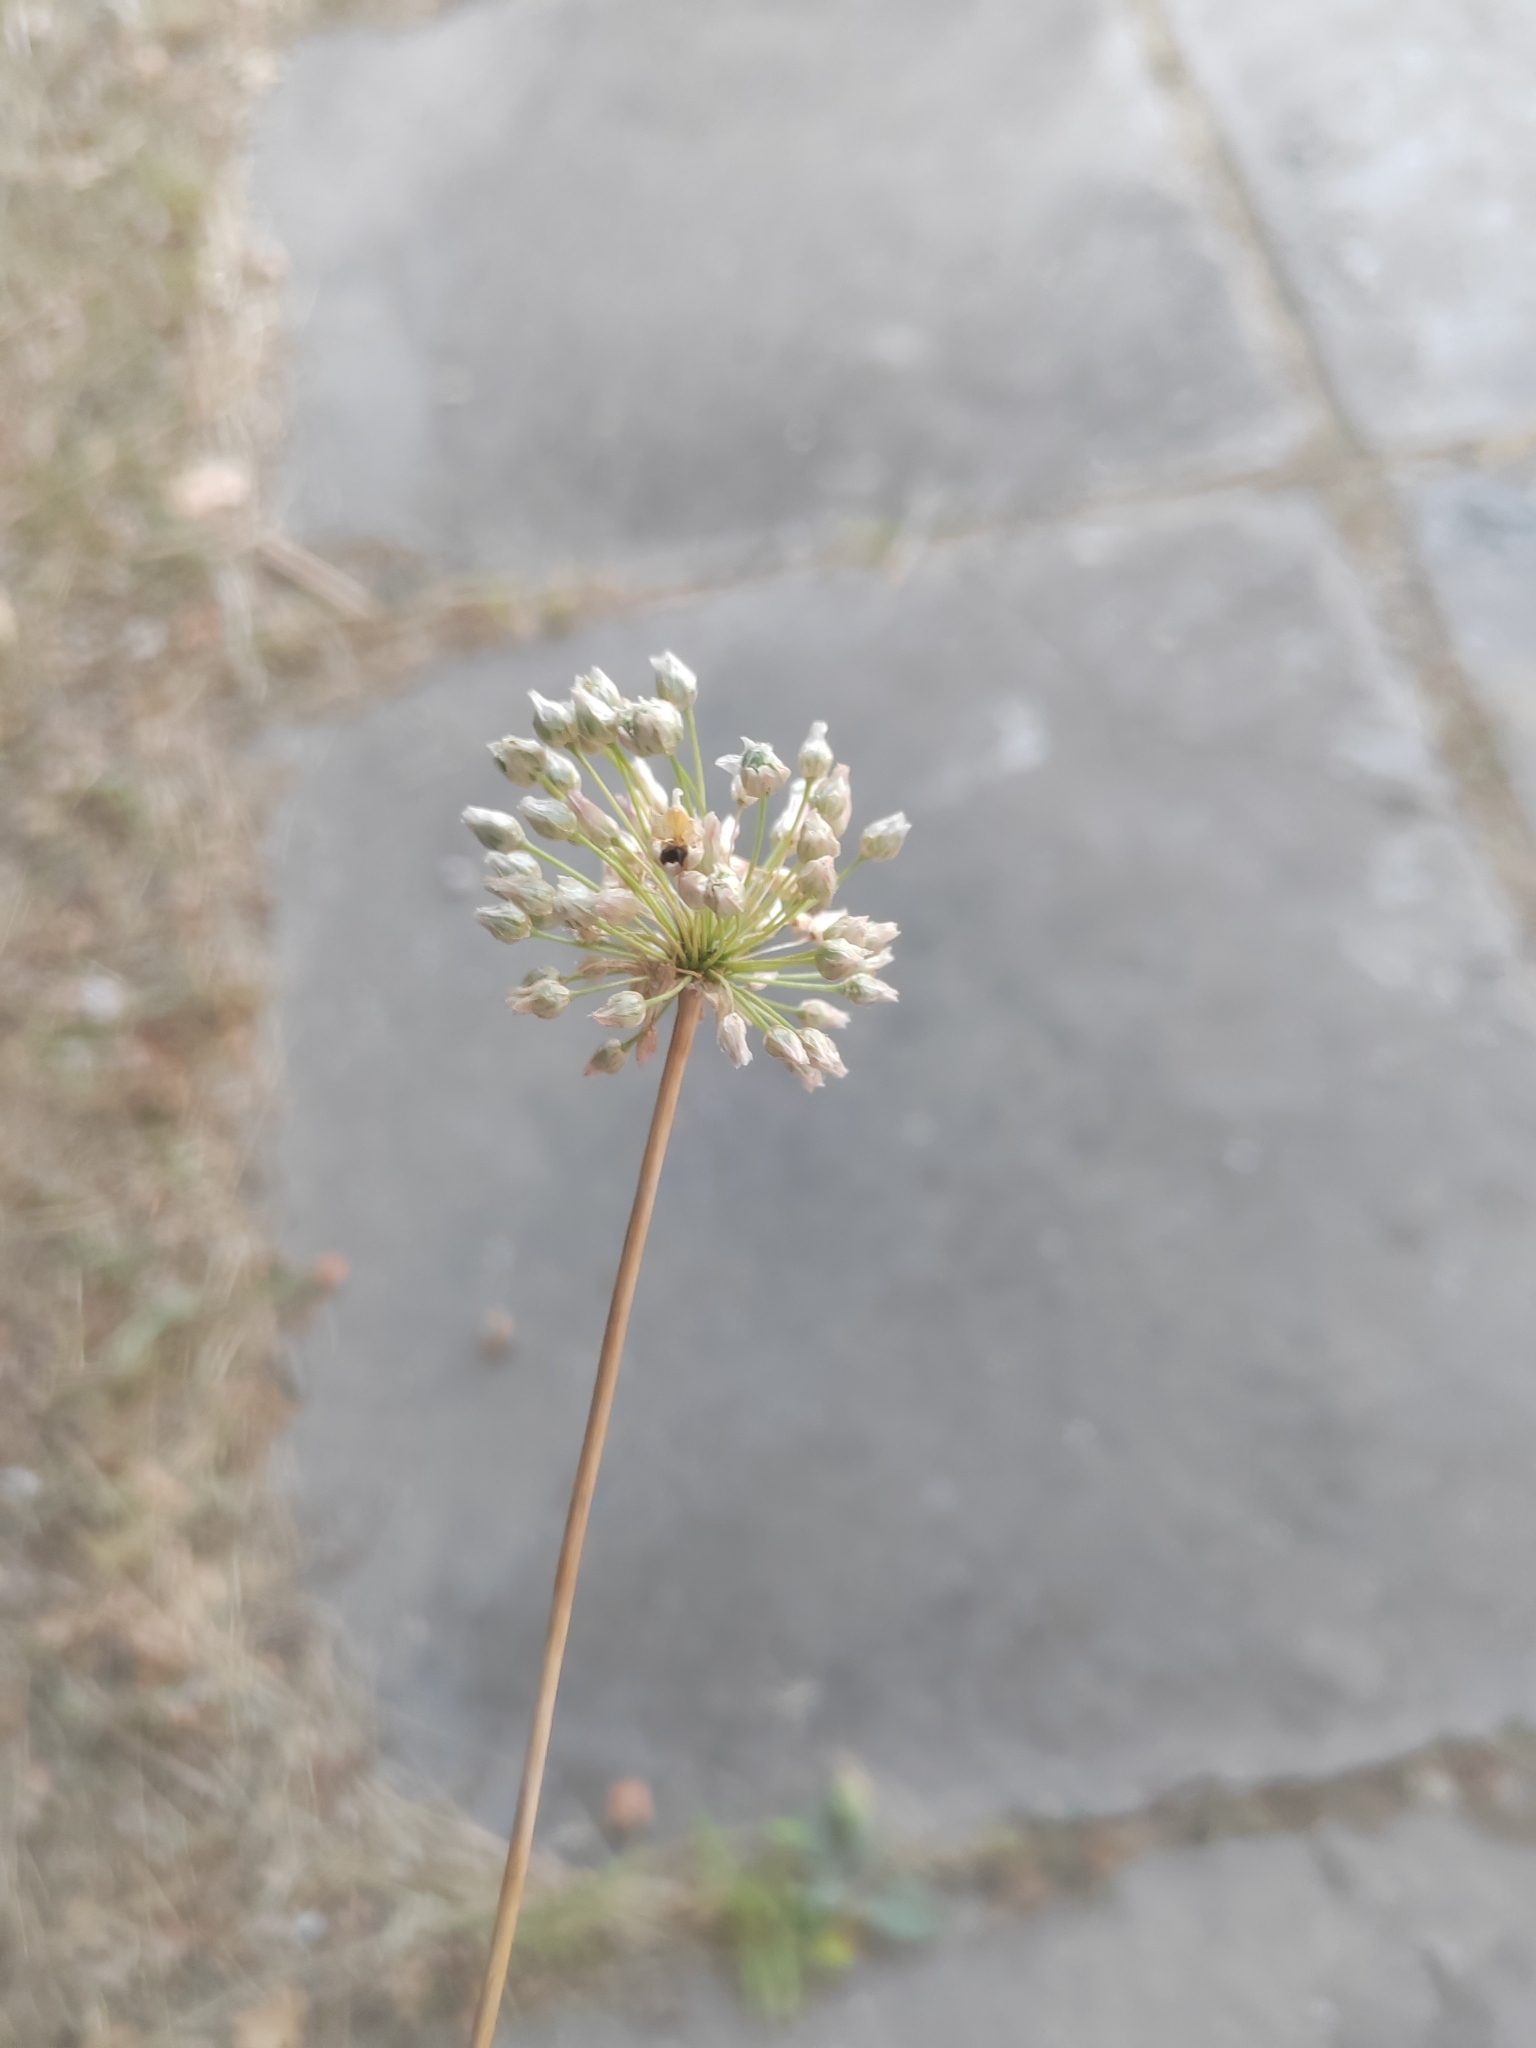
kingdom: Plantae
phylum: Tracheophyta
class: Liliopsida
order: Asparagales
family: Amaryllidaceae
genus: Allium
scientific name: Allium rotundum
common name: Sand leek
